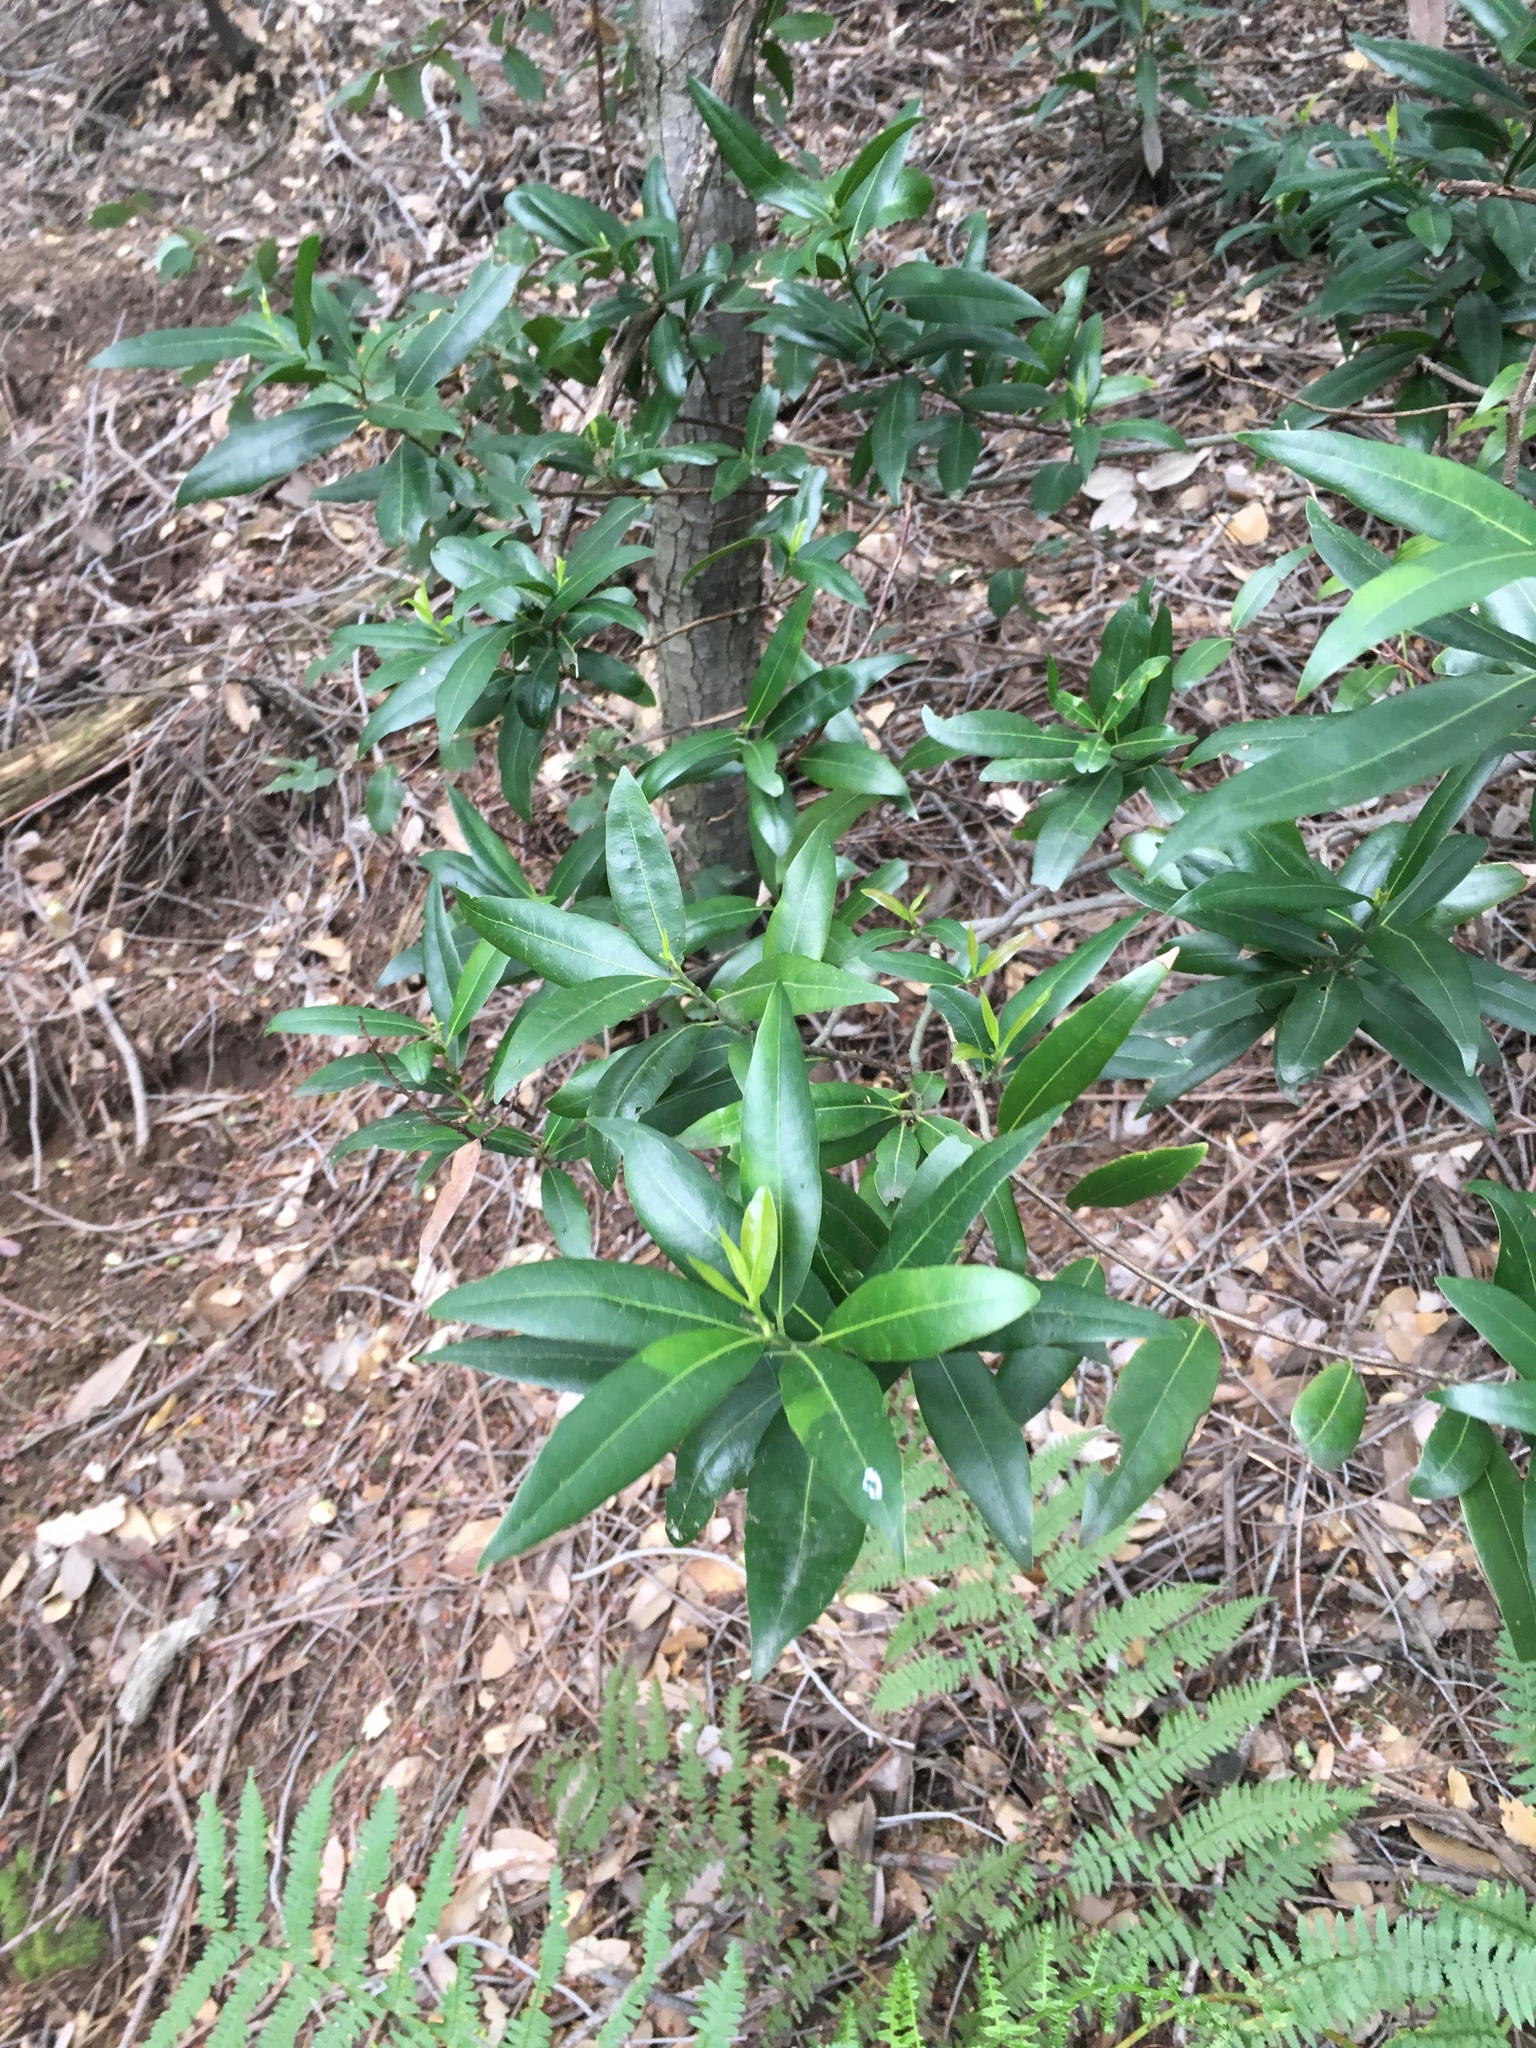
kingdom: Plantae
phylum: Tracheophyta
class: Magnoliopsida
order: Laurales
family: Lauraceae
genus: Umbellularia
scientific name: Umbellularia californica
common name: California bay
